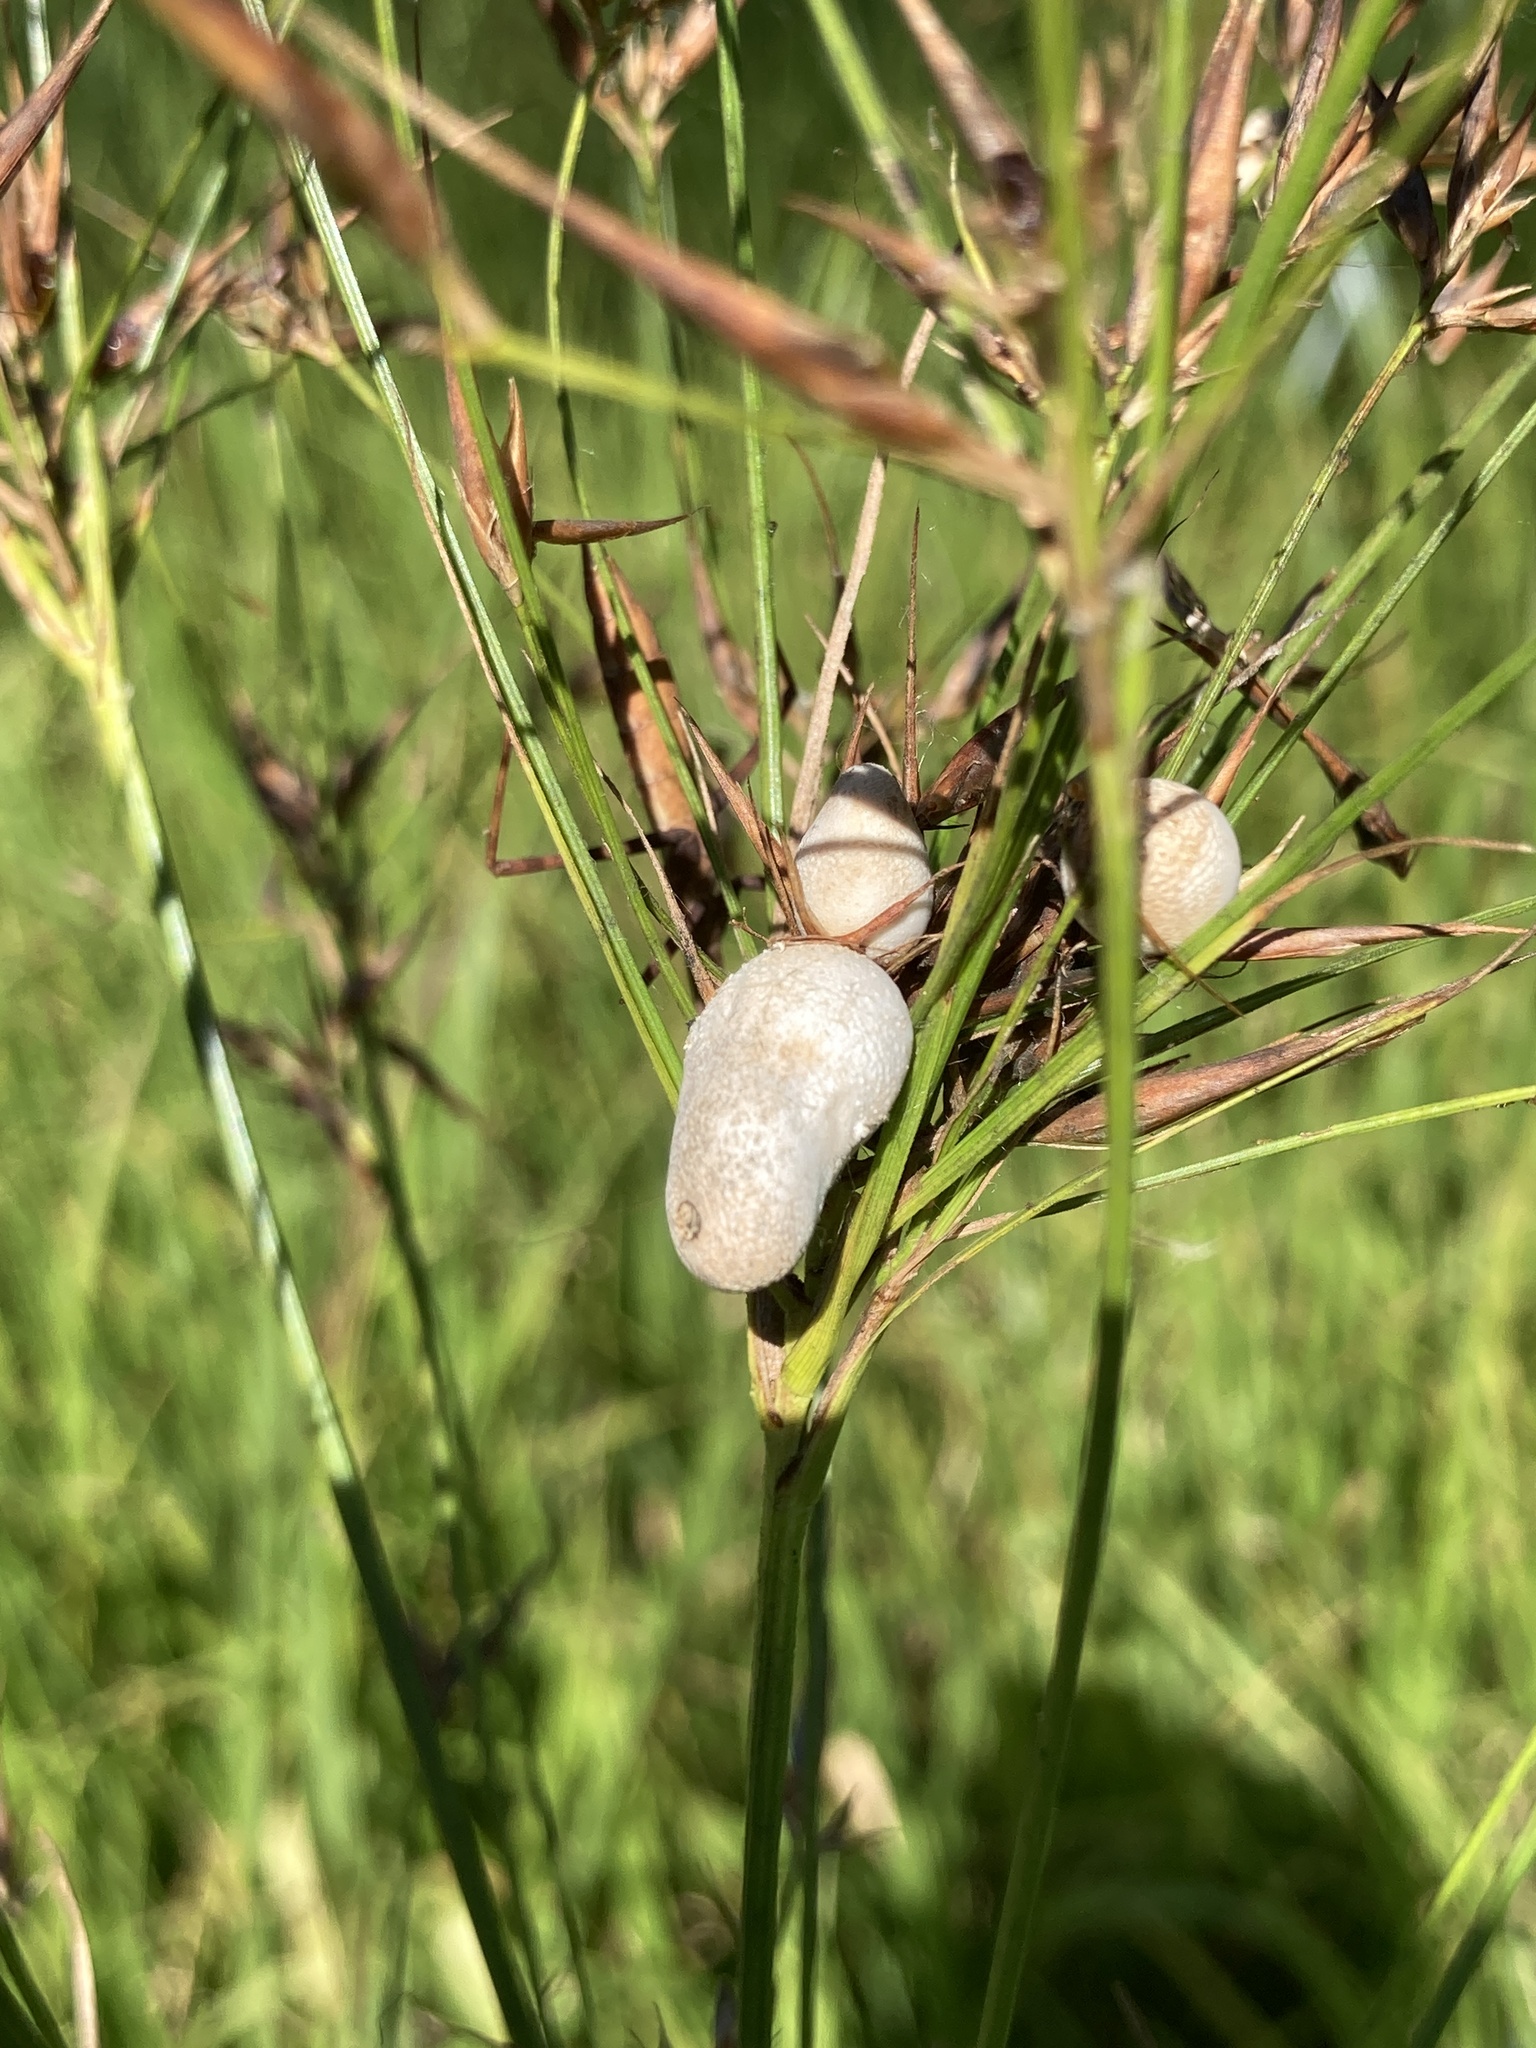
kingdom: Fungi
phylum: Basidiomycota
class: Ustilaginomycetes
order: Ustilaginales
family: Anthracoideaceae
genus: Testicularia
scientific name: Testicularia cyperi
